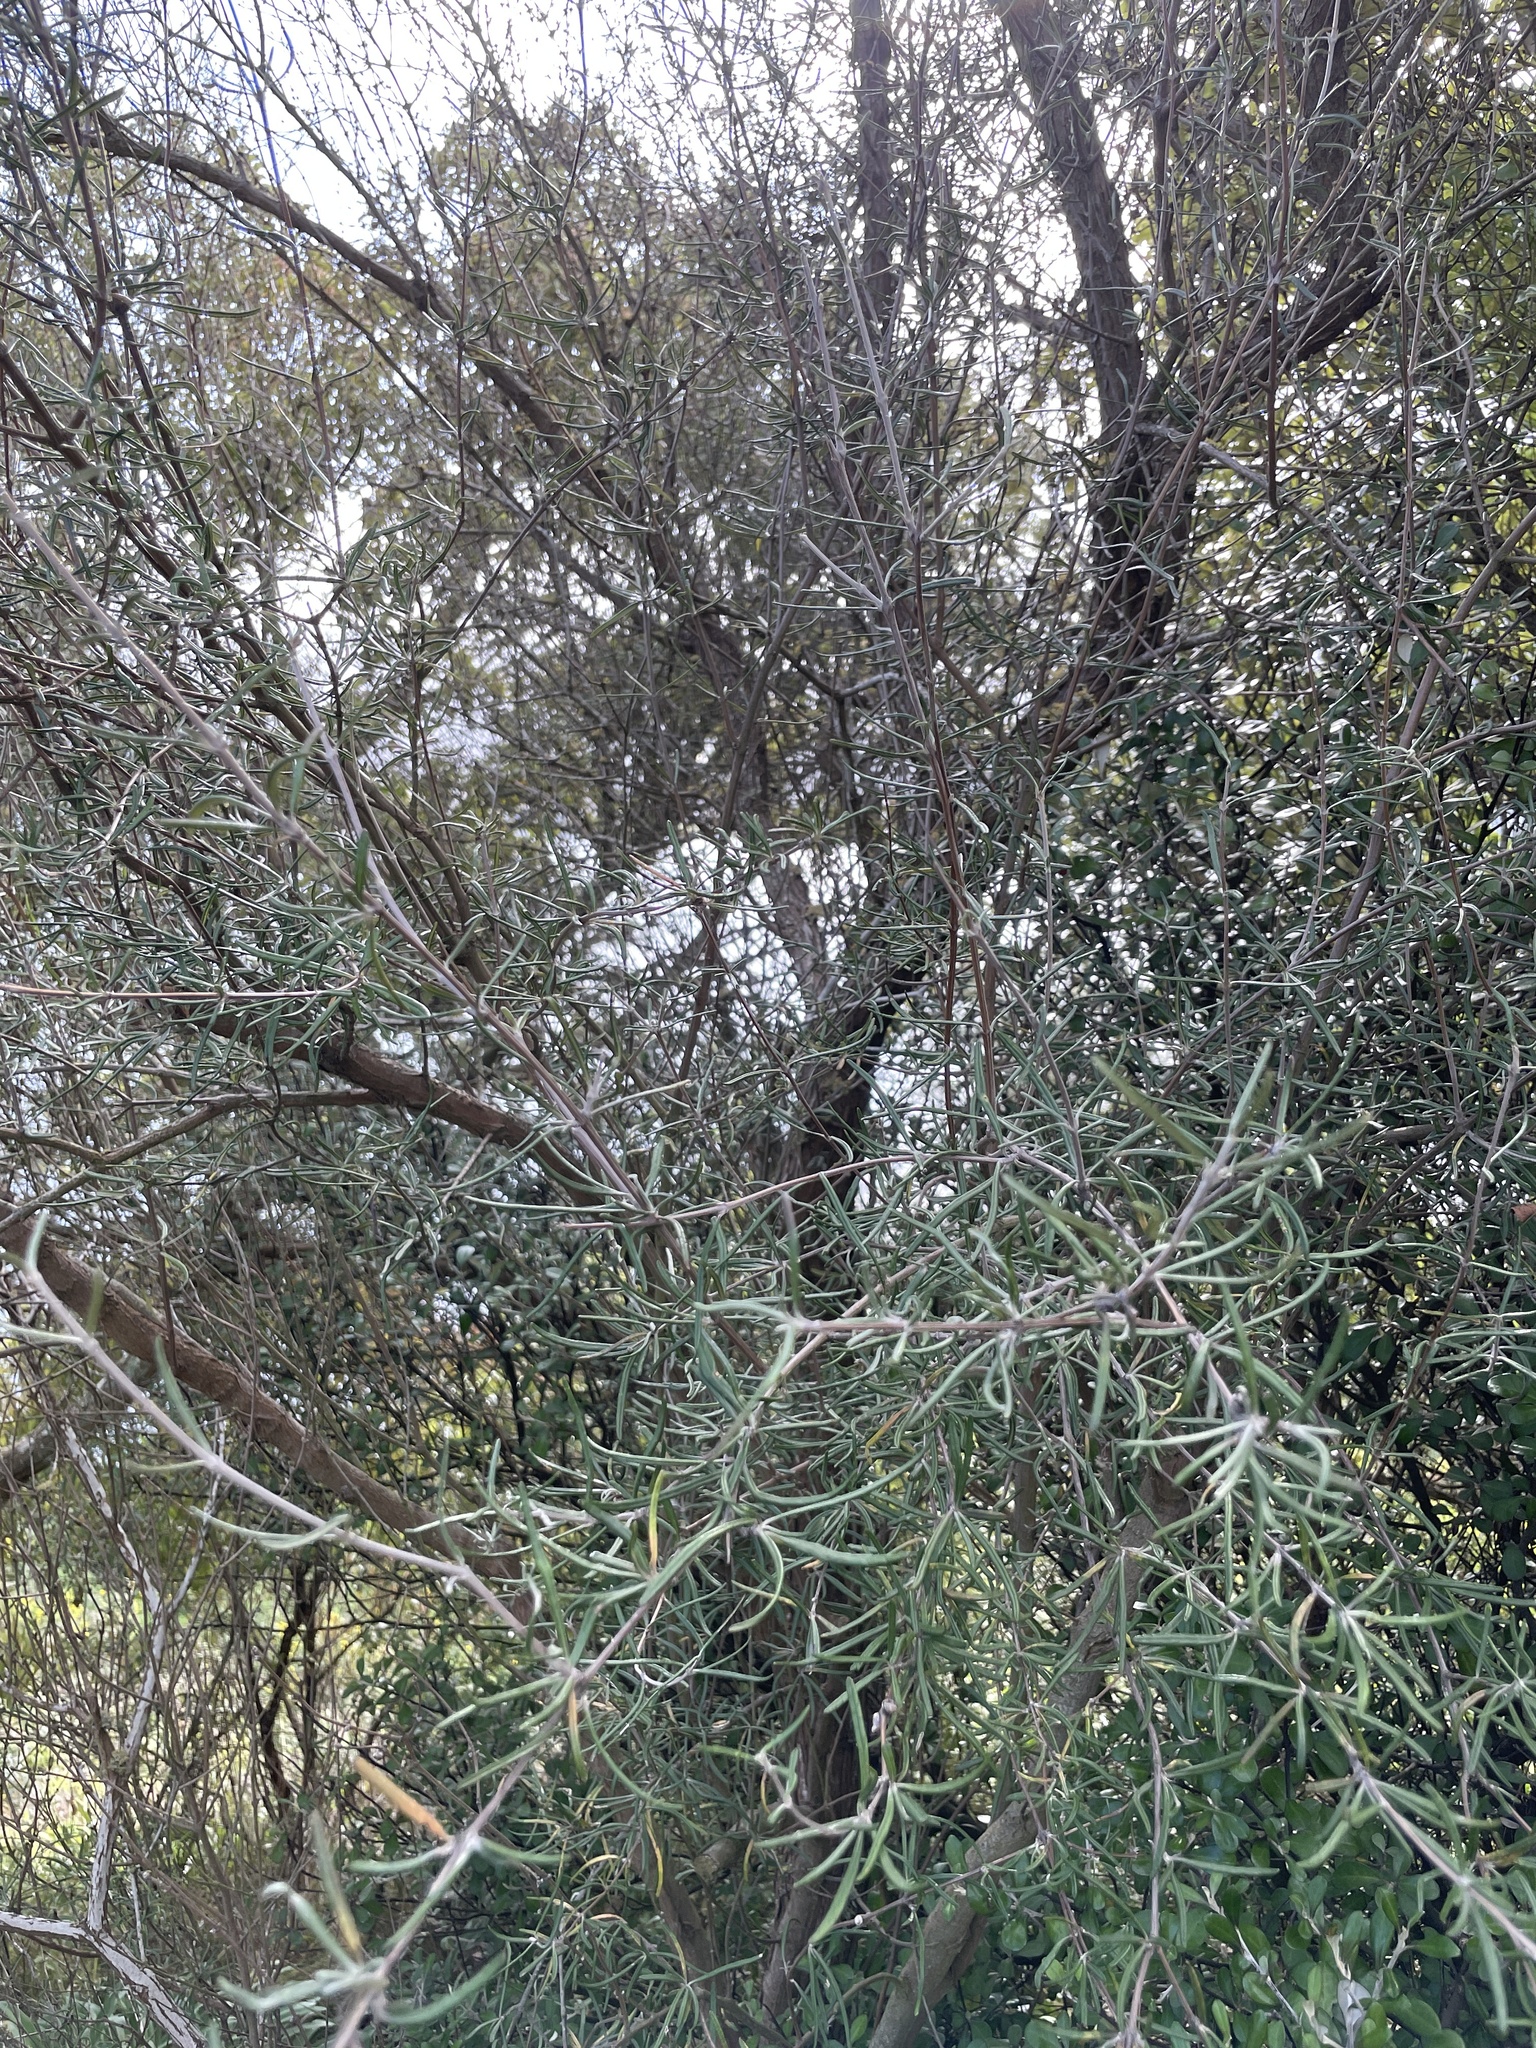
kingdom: Plantae
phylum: Tracheophyta
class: Magnoliopsida
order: Asterales
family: Asteraceae
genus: Olearia
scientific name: Olearia lineata
